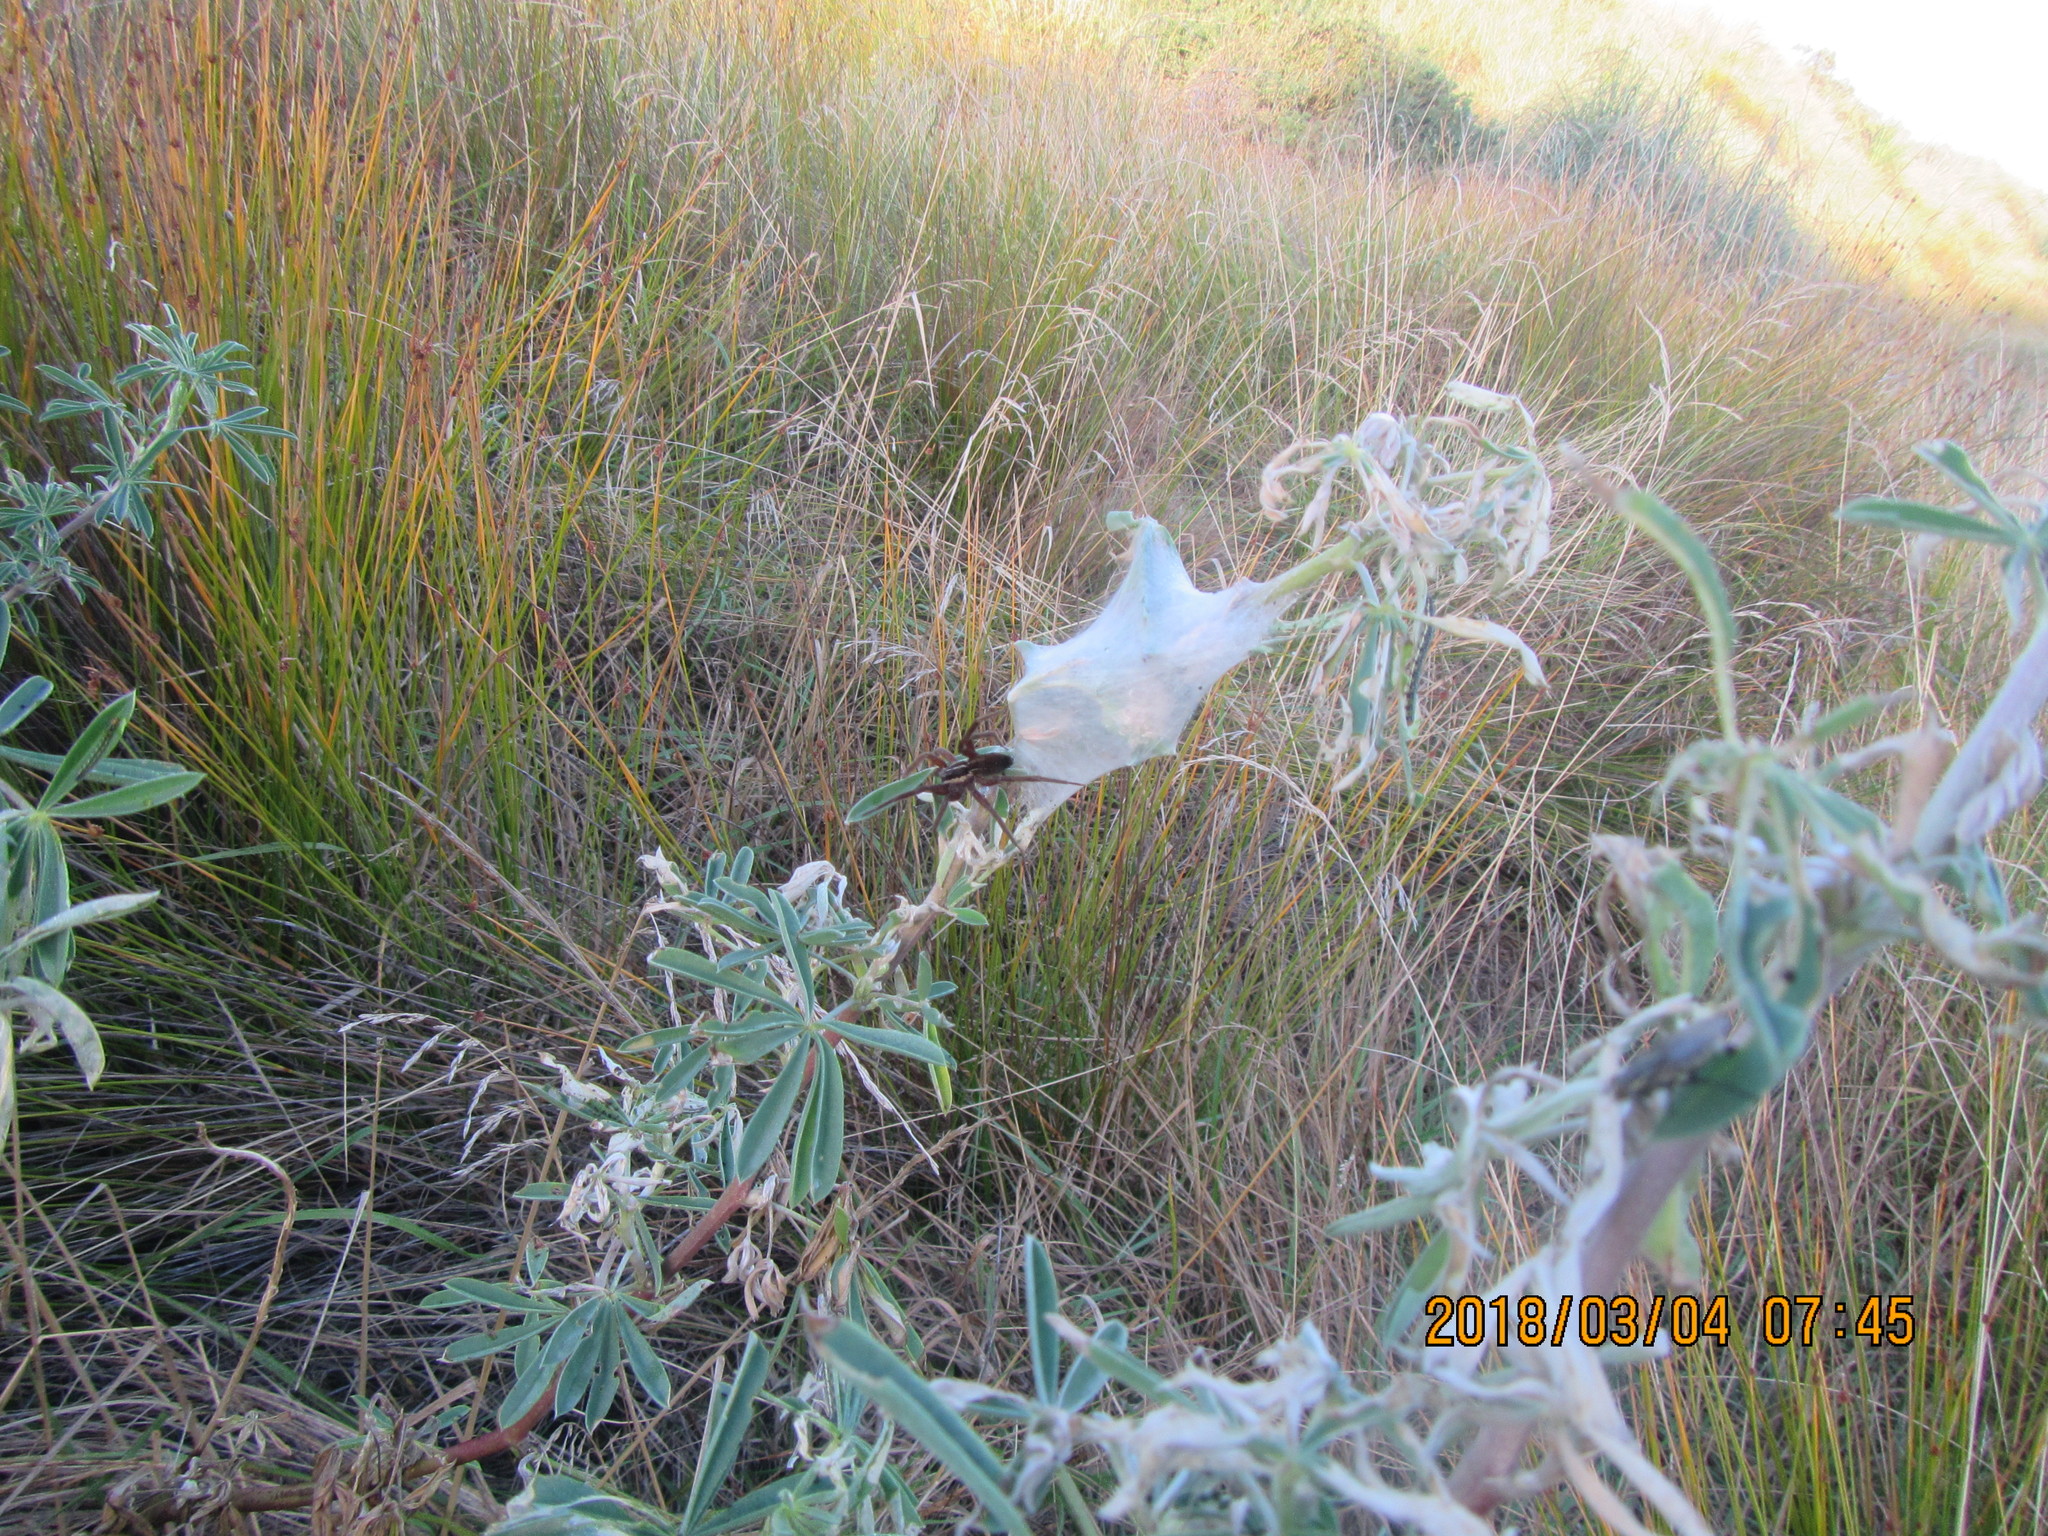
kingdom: Animalia
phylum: Arthropoda
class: Arachnida
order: Araneae
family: Pisauridae
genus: Dolomedes
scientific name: Dolomedes minor
